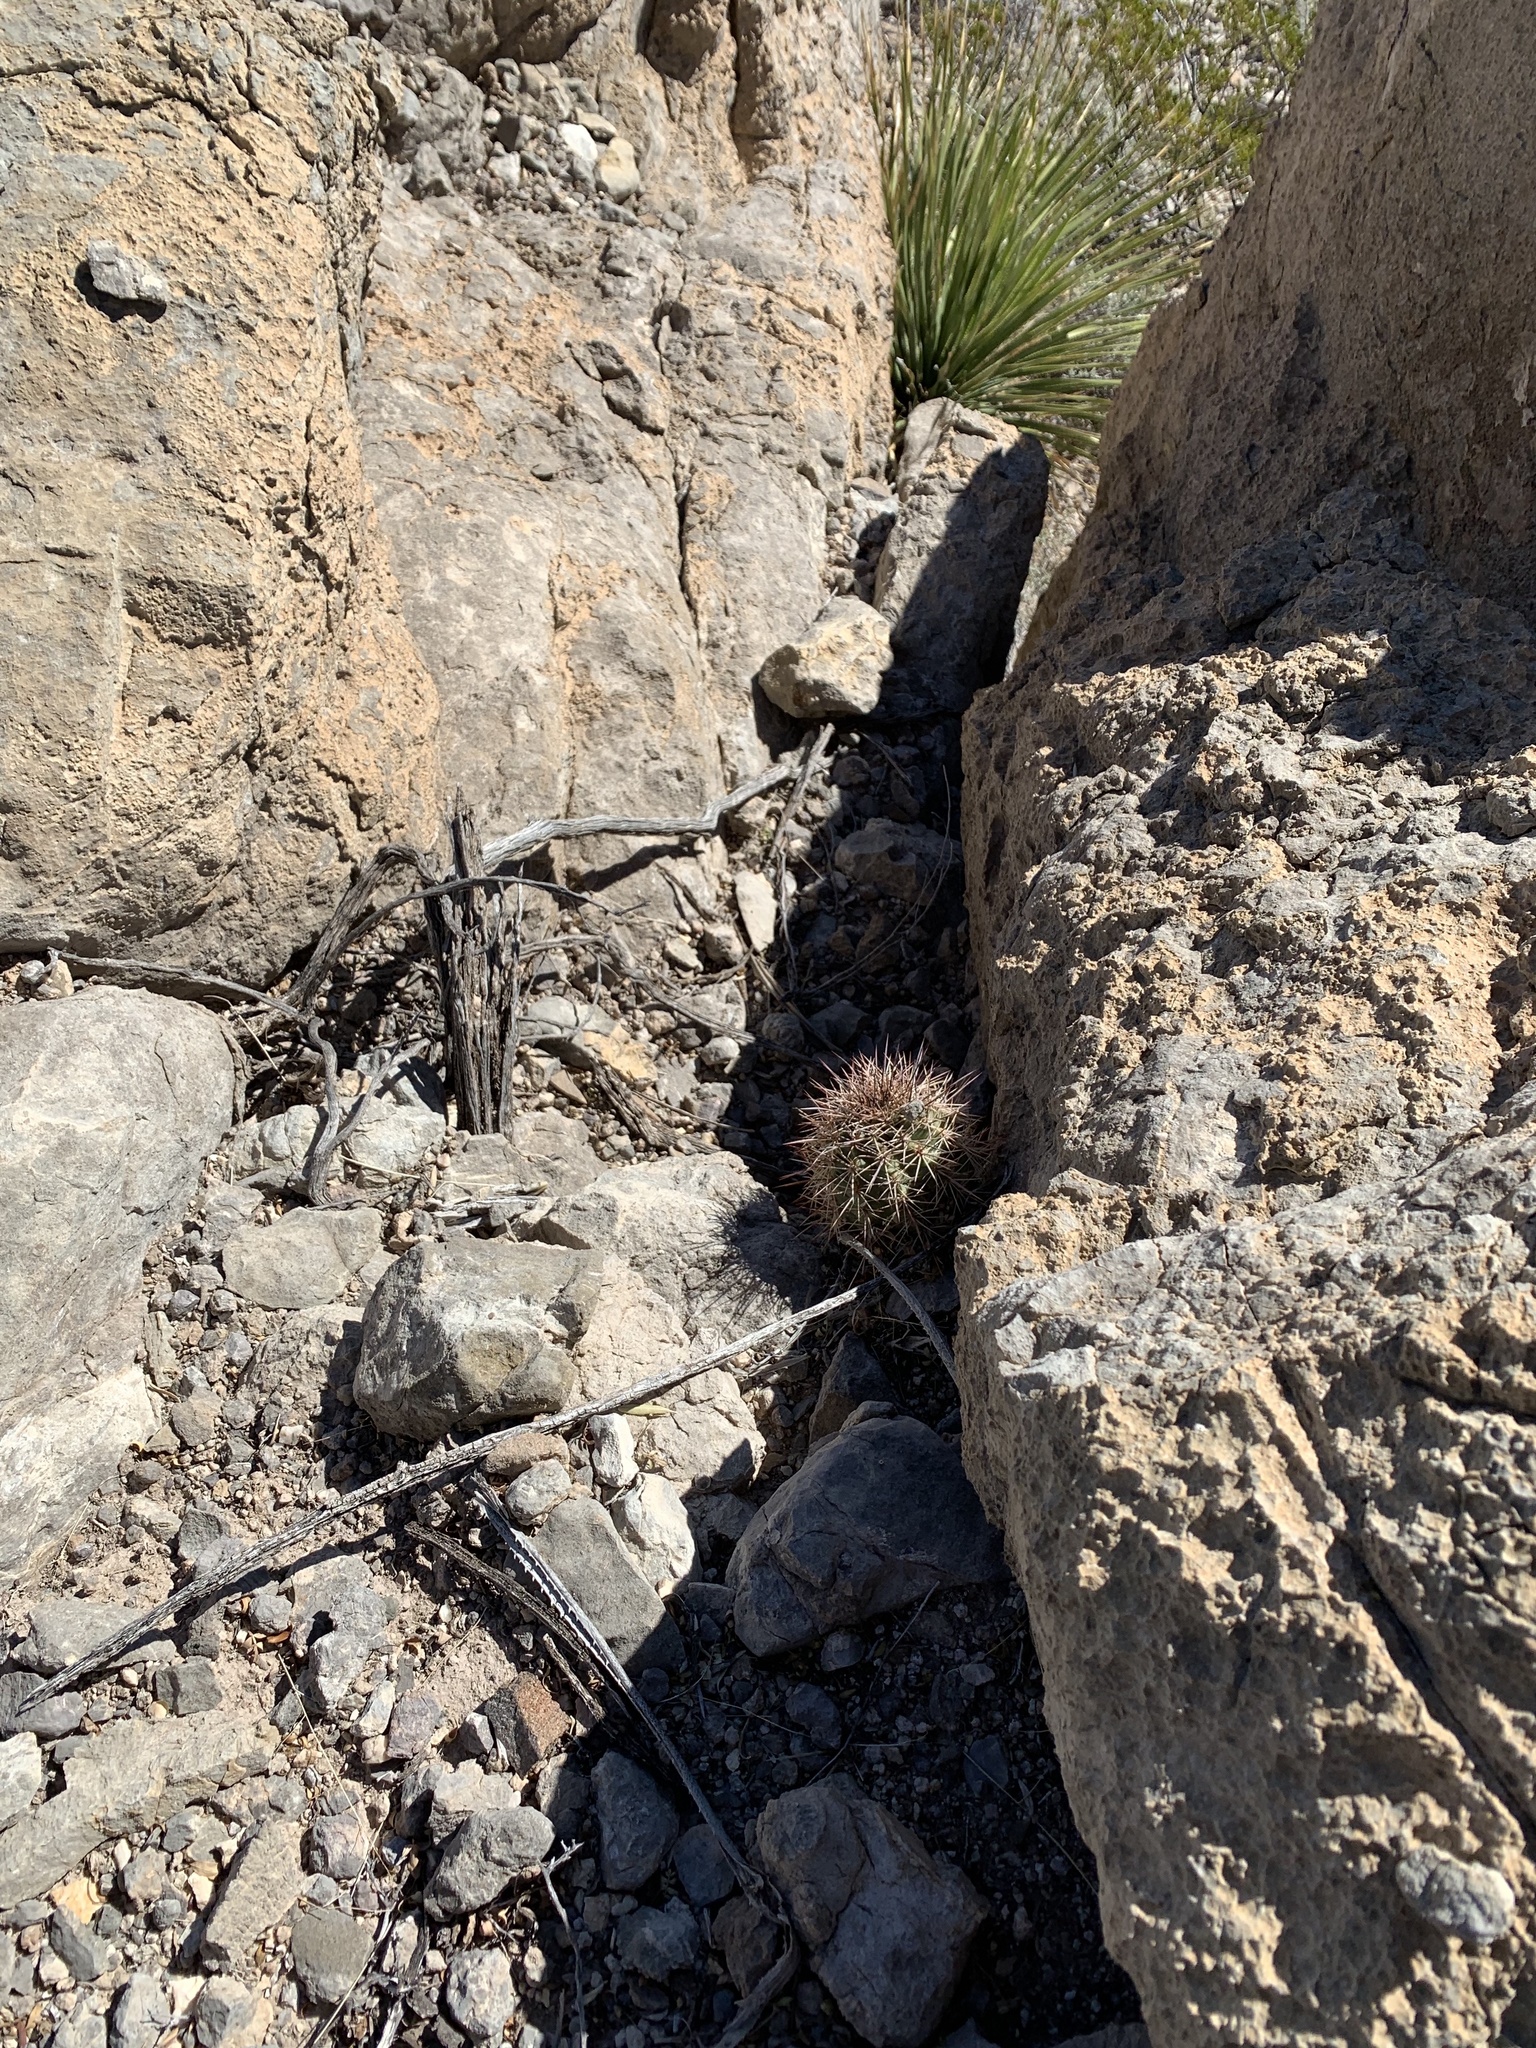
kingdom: Plantae
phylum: Tracheophyta
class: Magnoliopsida
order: Caryophyllales
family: Cactaceae
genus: Echinocereus
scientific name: Echinocereus coccineus
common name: Scarlet hedgehog cactus
